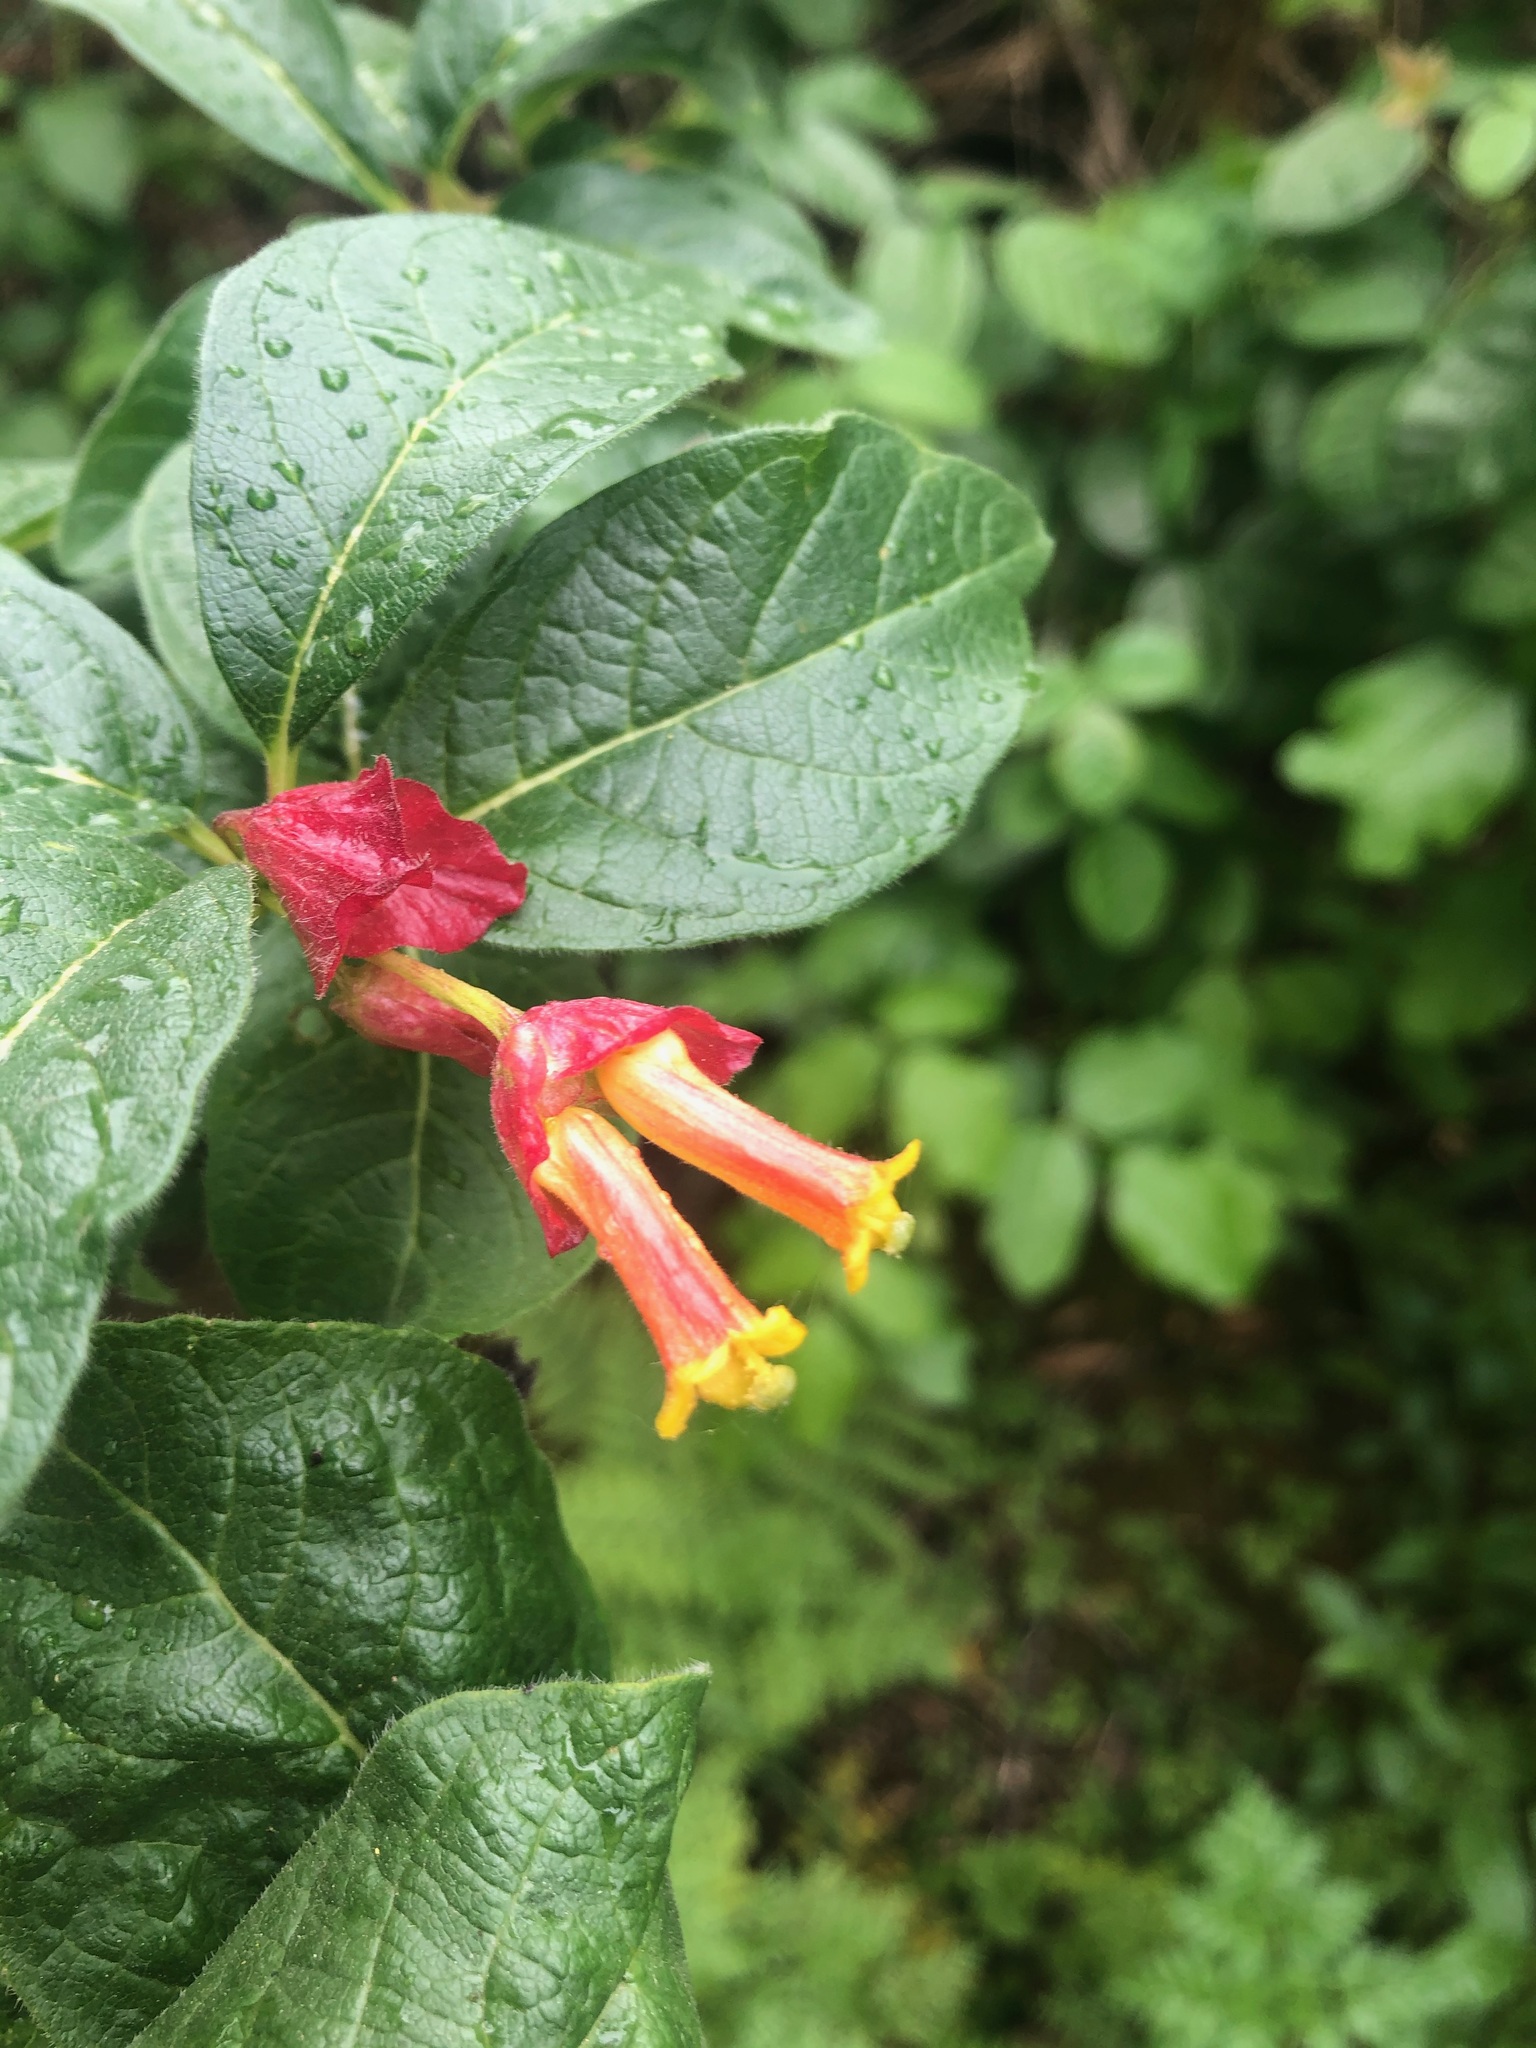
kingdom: Plantae
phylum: Tracheophyta
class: Magnoliopsida
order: Dipsacales
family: Caprifoliaceae
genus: Lonicera
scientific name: Lonicera involucrata
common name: Californian honeysuckle
